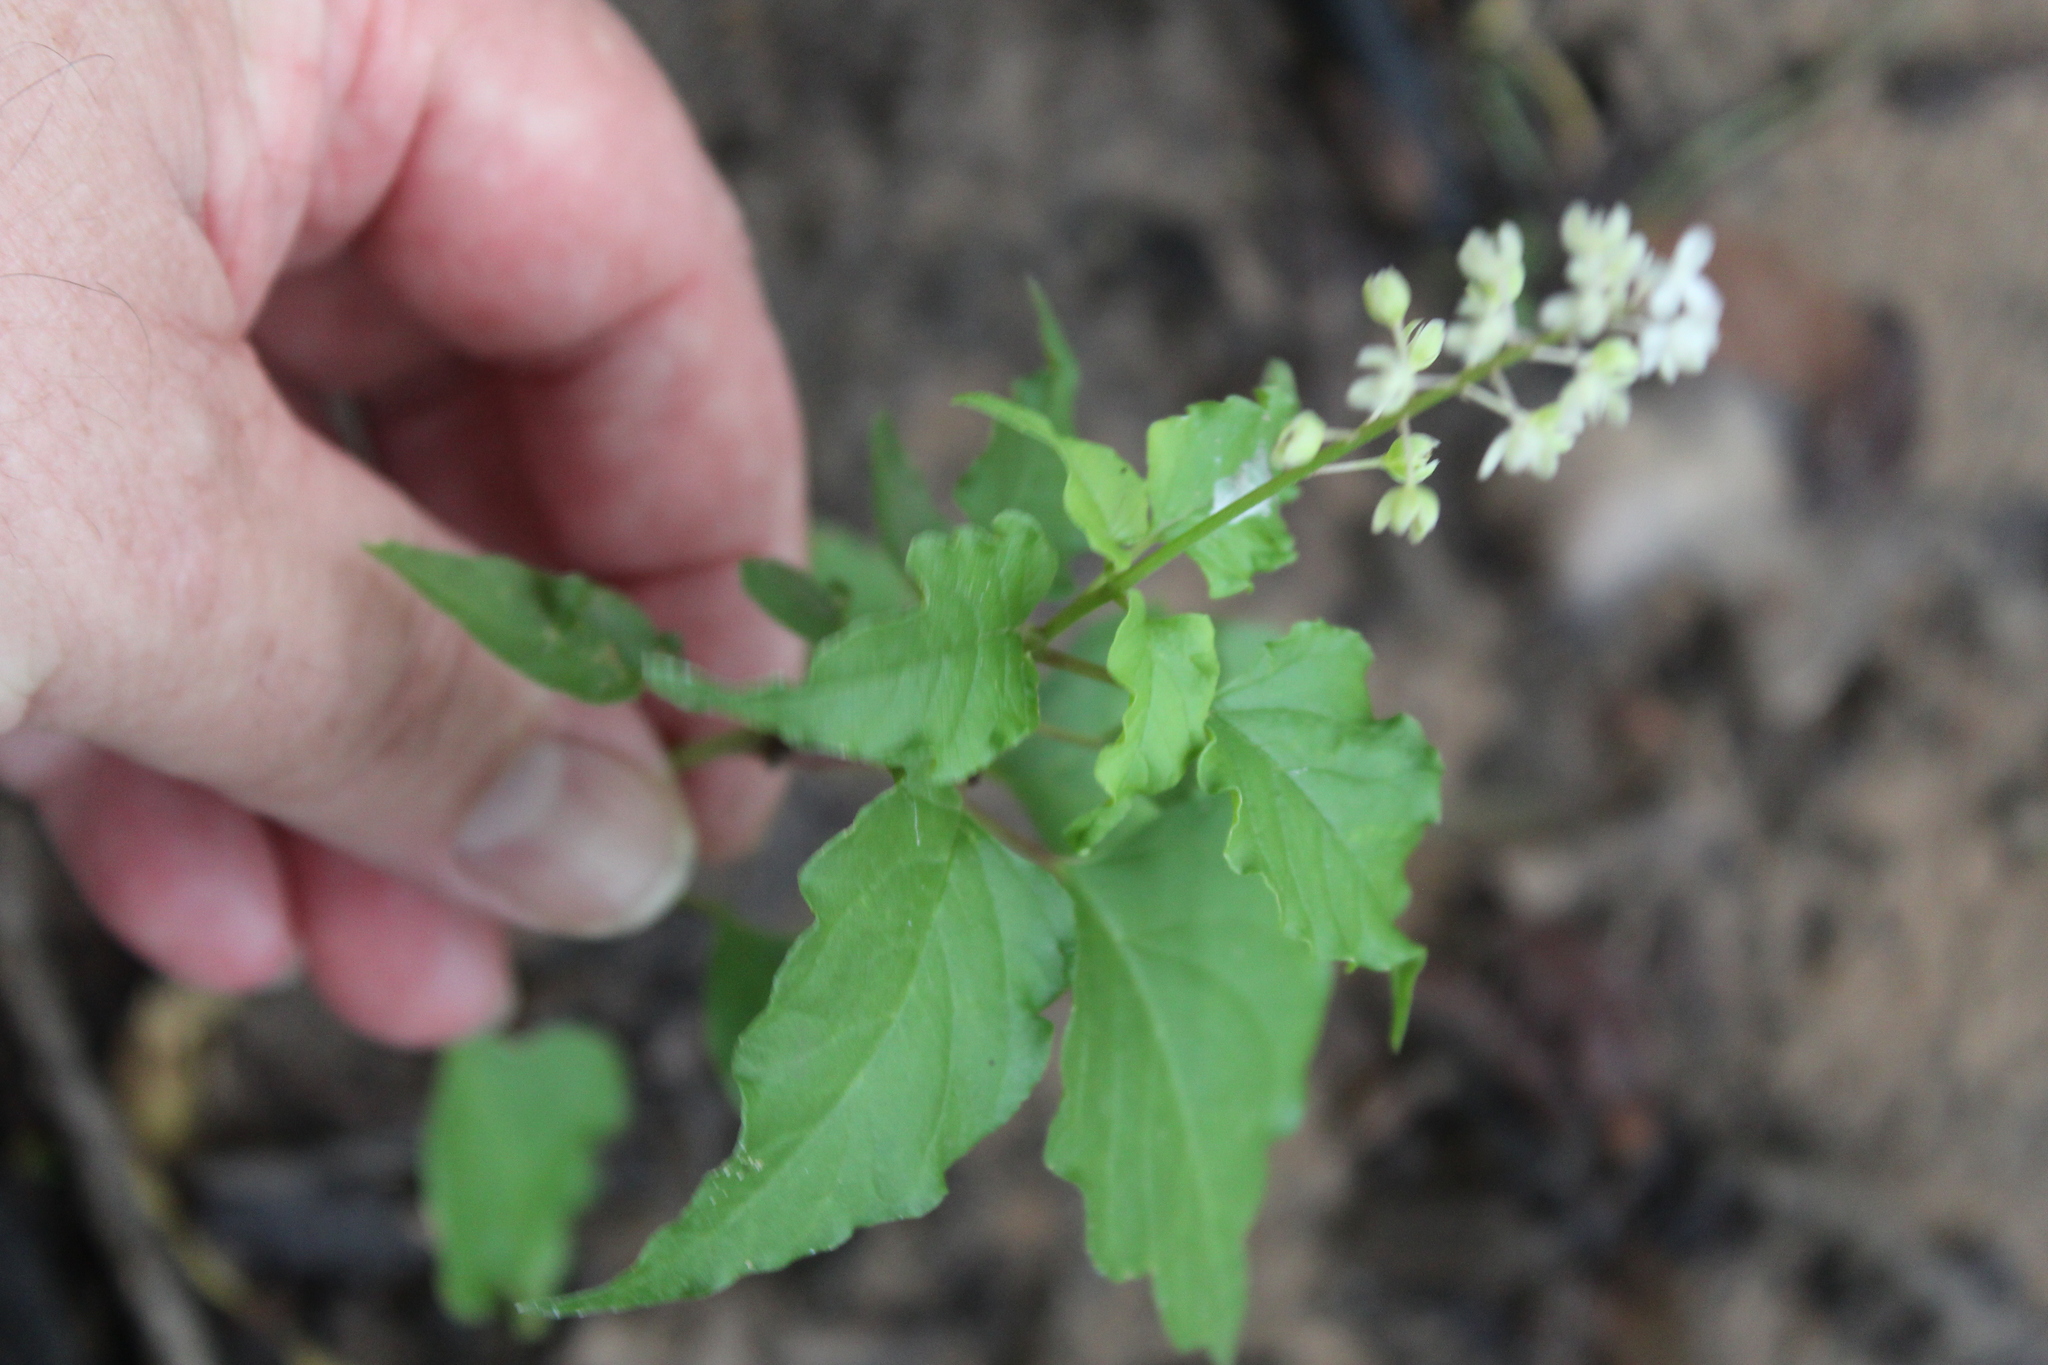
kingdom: Plantae
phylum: Tracheophyta
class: Magnoliopsida
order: Caryophyllales
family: Phytolaccaceae
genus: Rivina
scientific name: Rivina humilis
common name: Rougeplant
